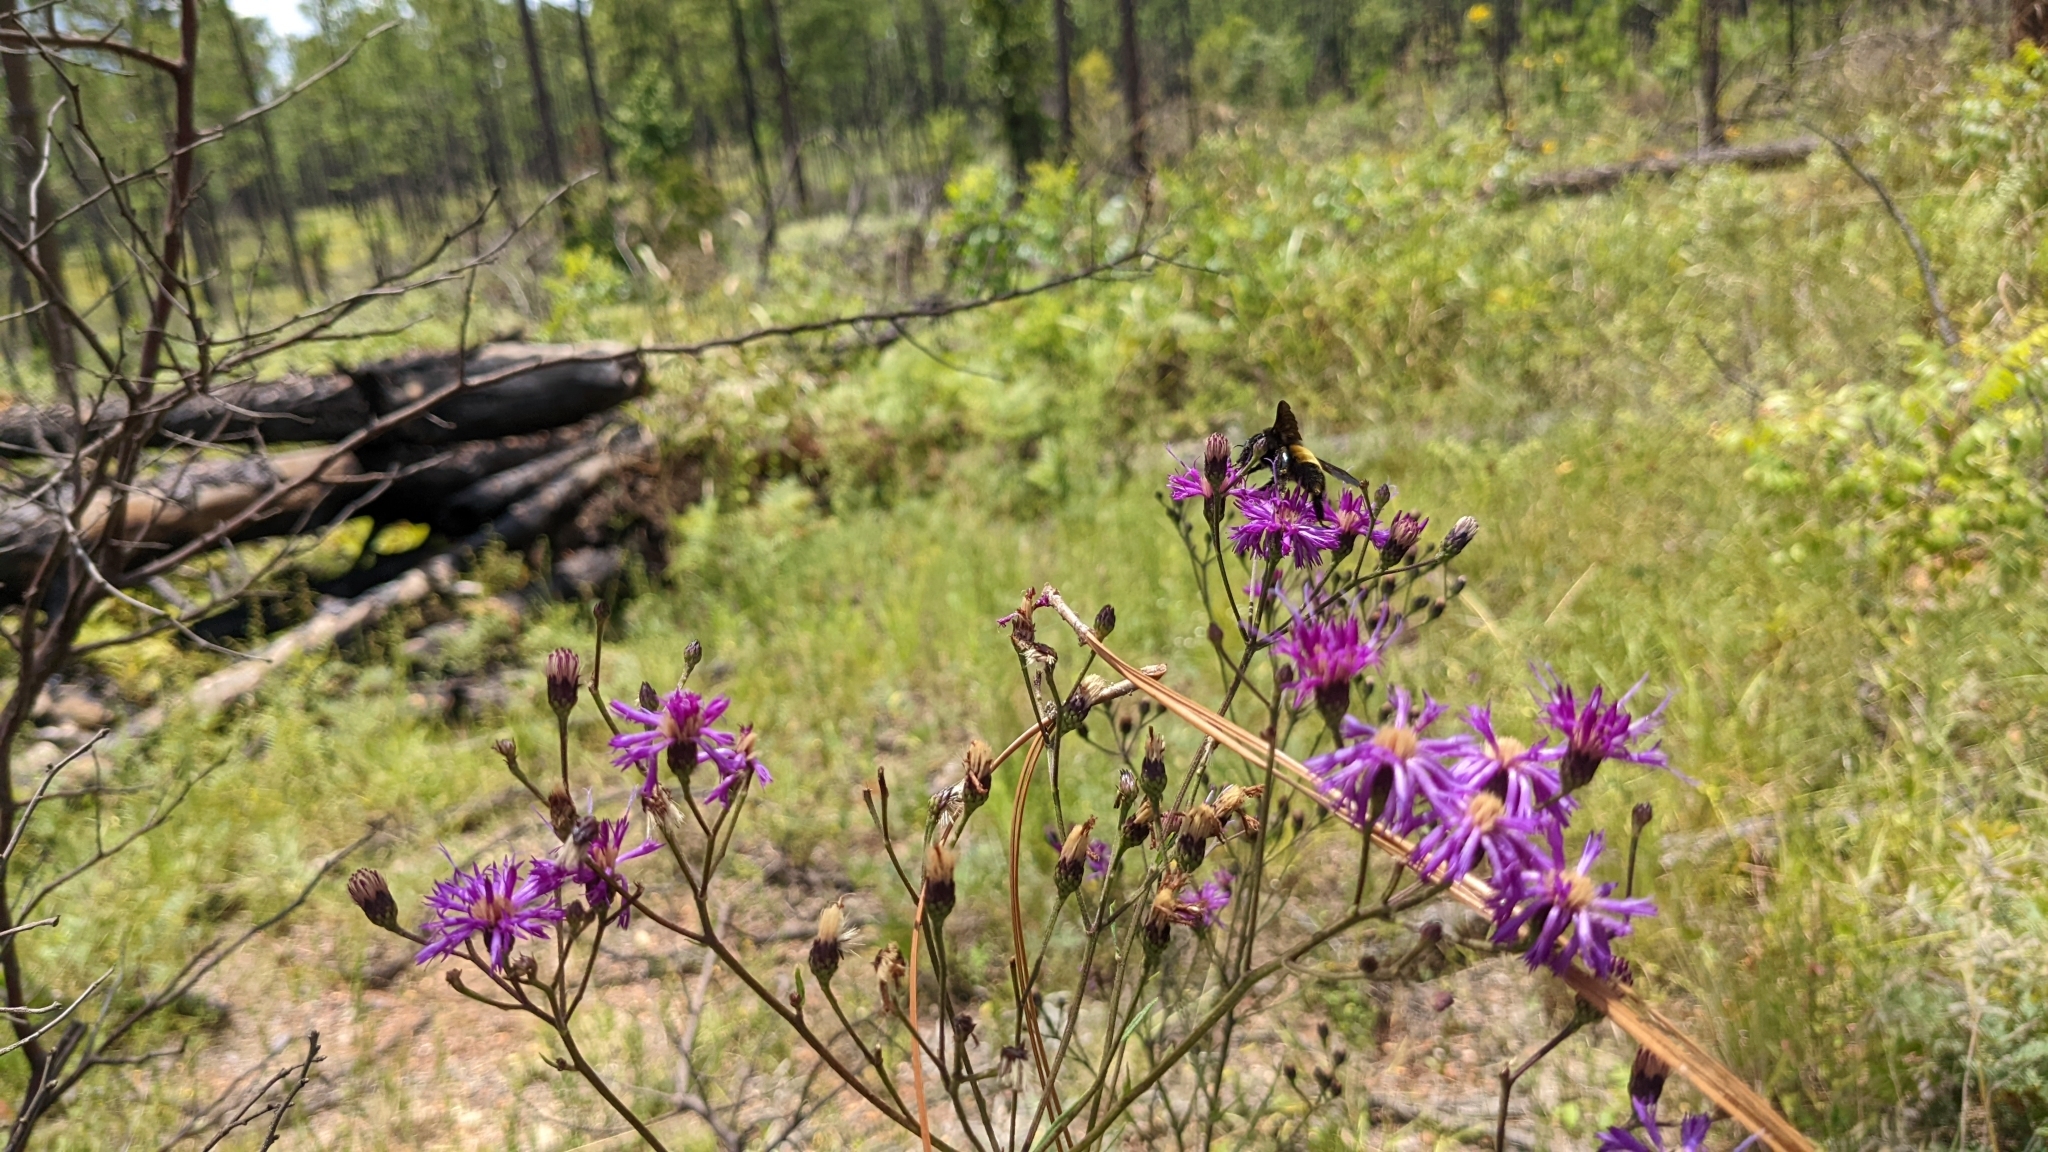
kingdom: Plantae
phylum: Tracheophyta
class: Magnoliopsida
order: Asterales
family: Asteraceae
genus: Vernonia
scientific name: Vernonia texana
